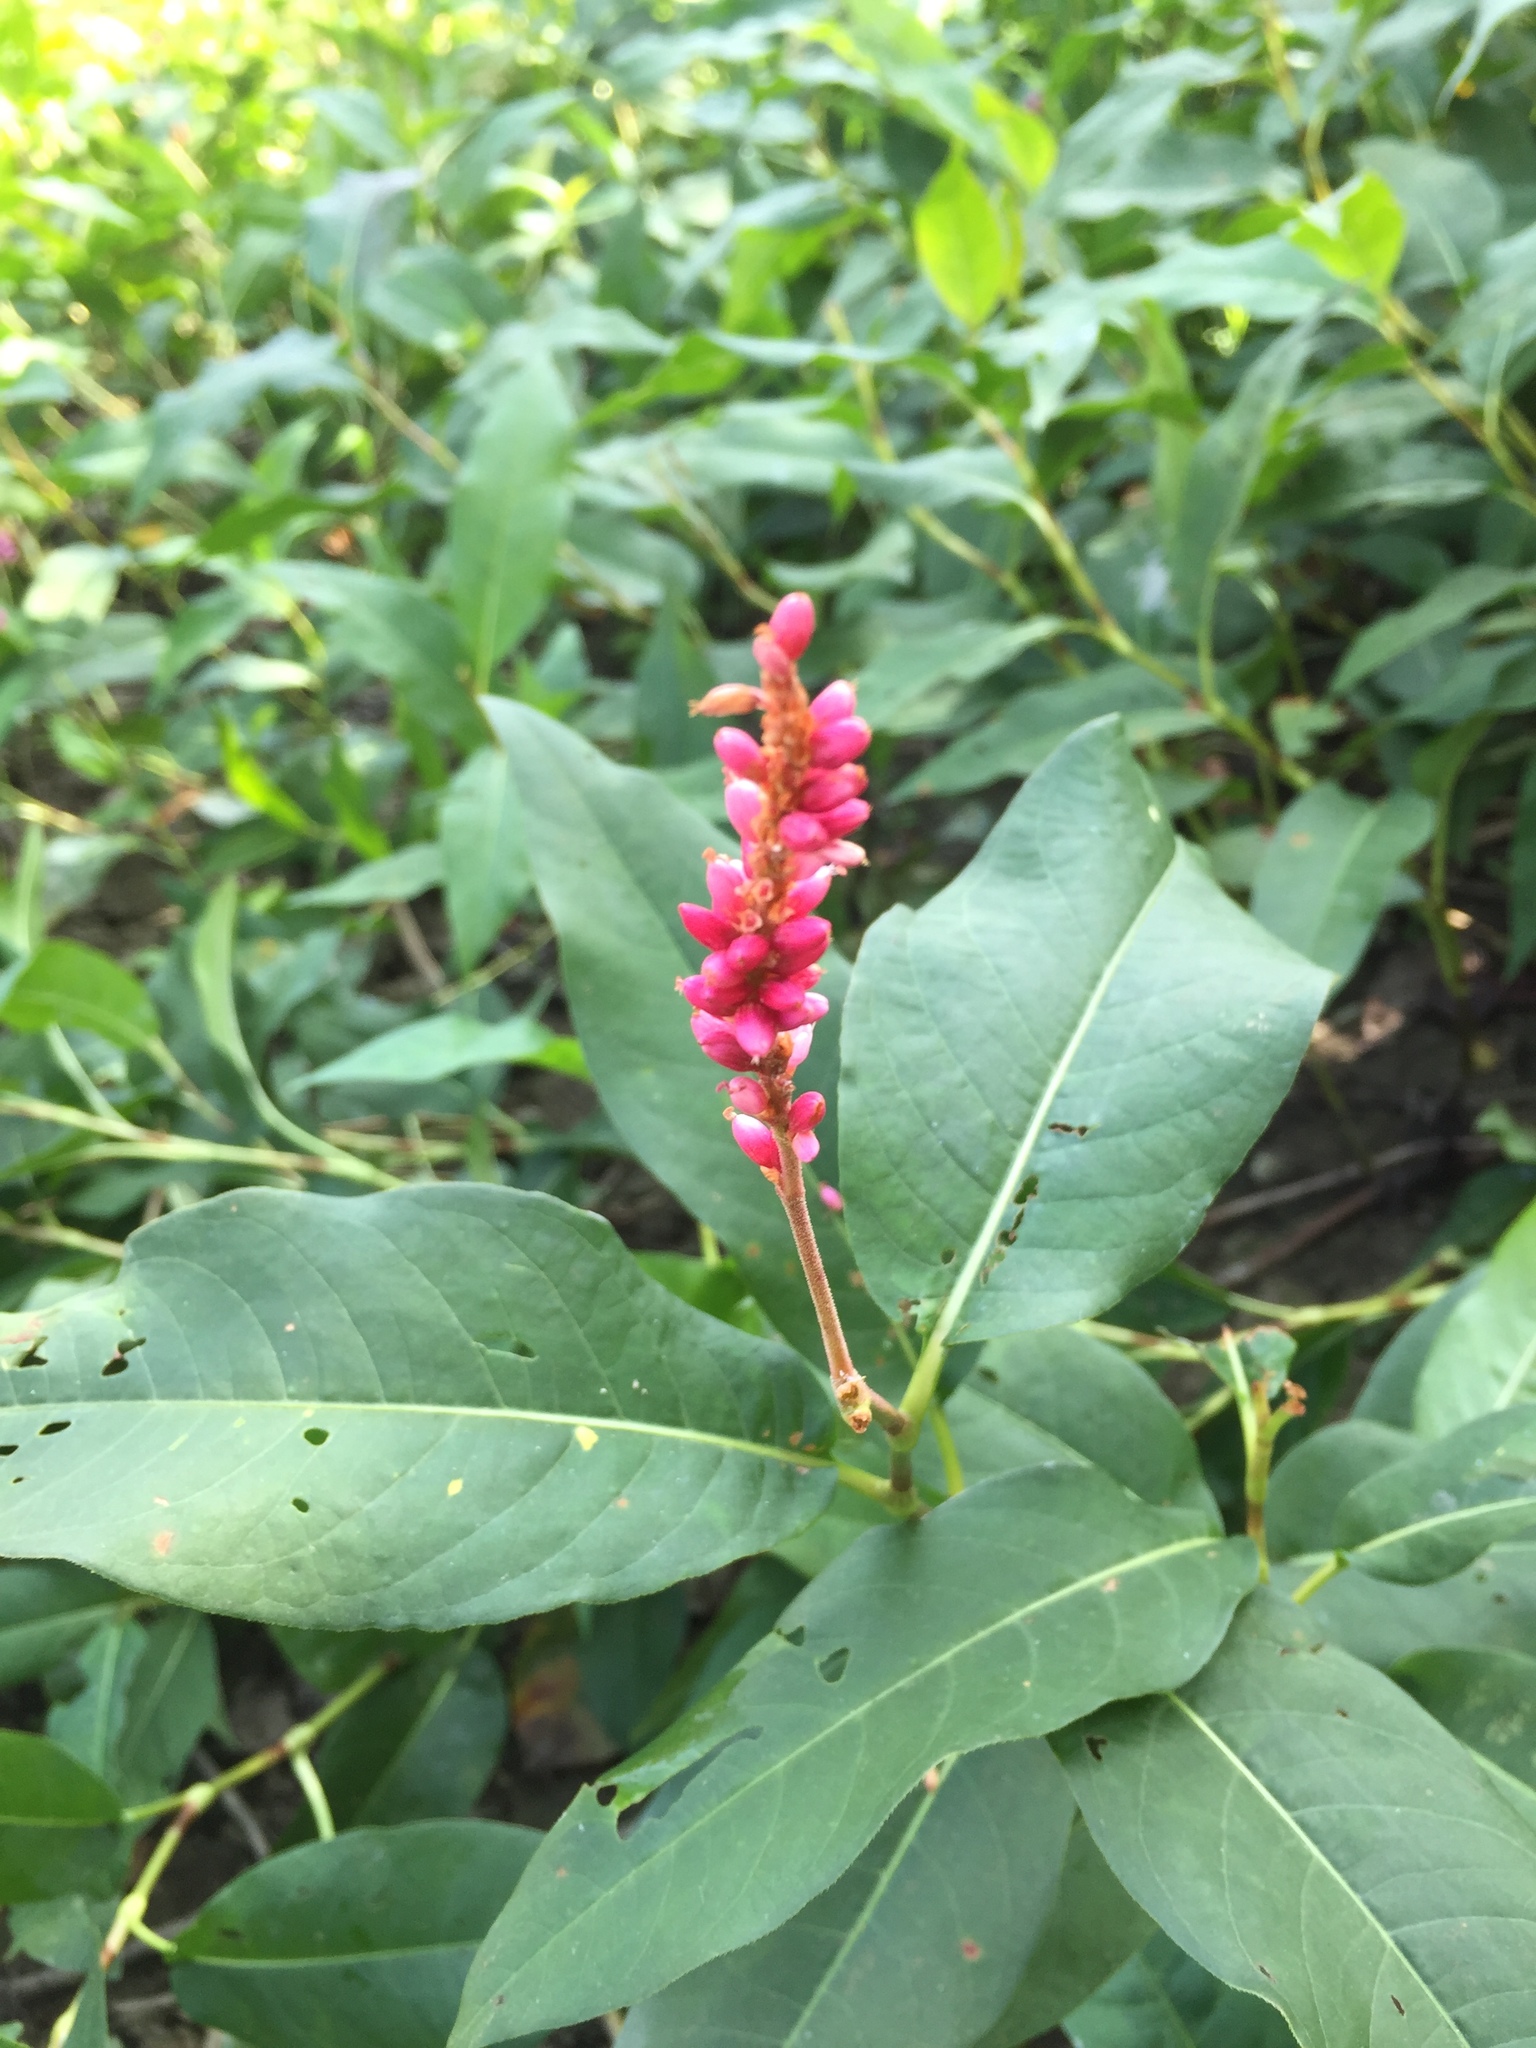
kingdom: Plantae
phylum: Tracheophyta
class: Magnoliopsida
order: Caryophyllales
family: Polygonaceae
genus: Persicaria
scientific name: Persicaria amphibia
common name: Amphibious bistort
